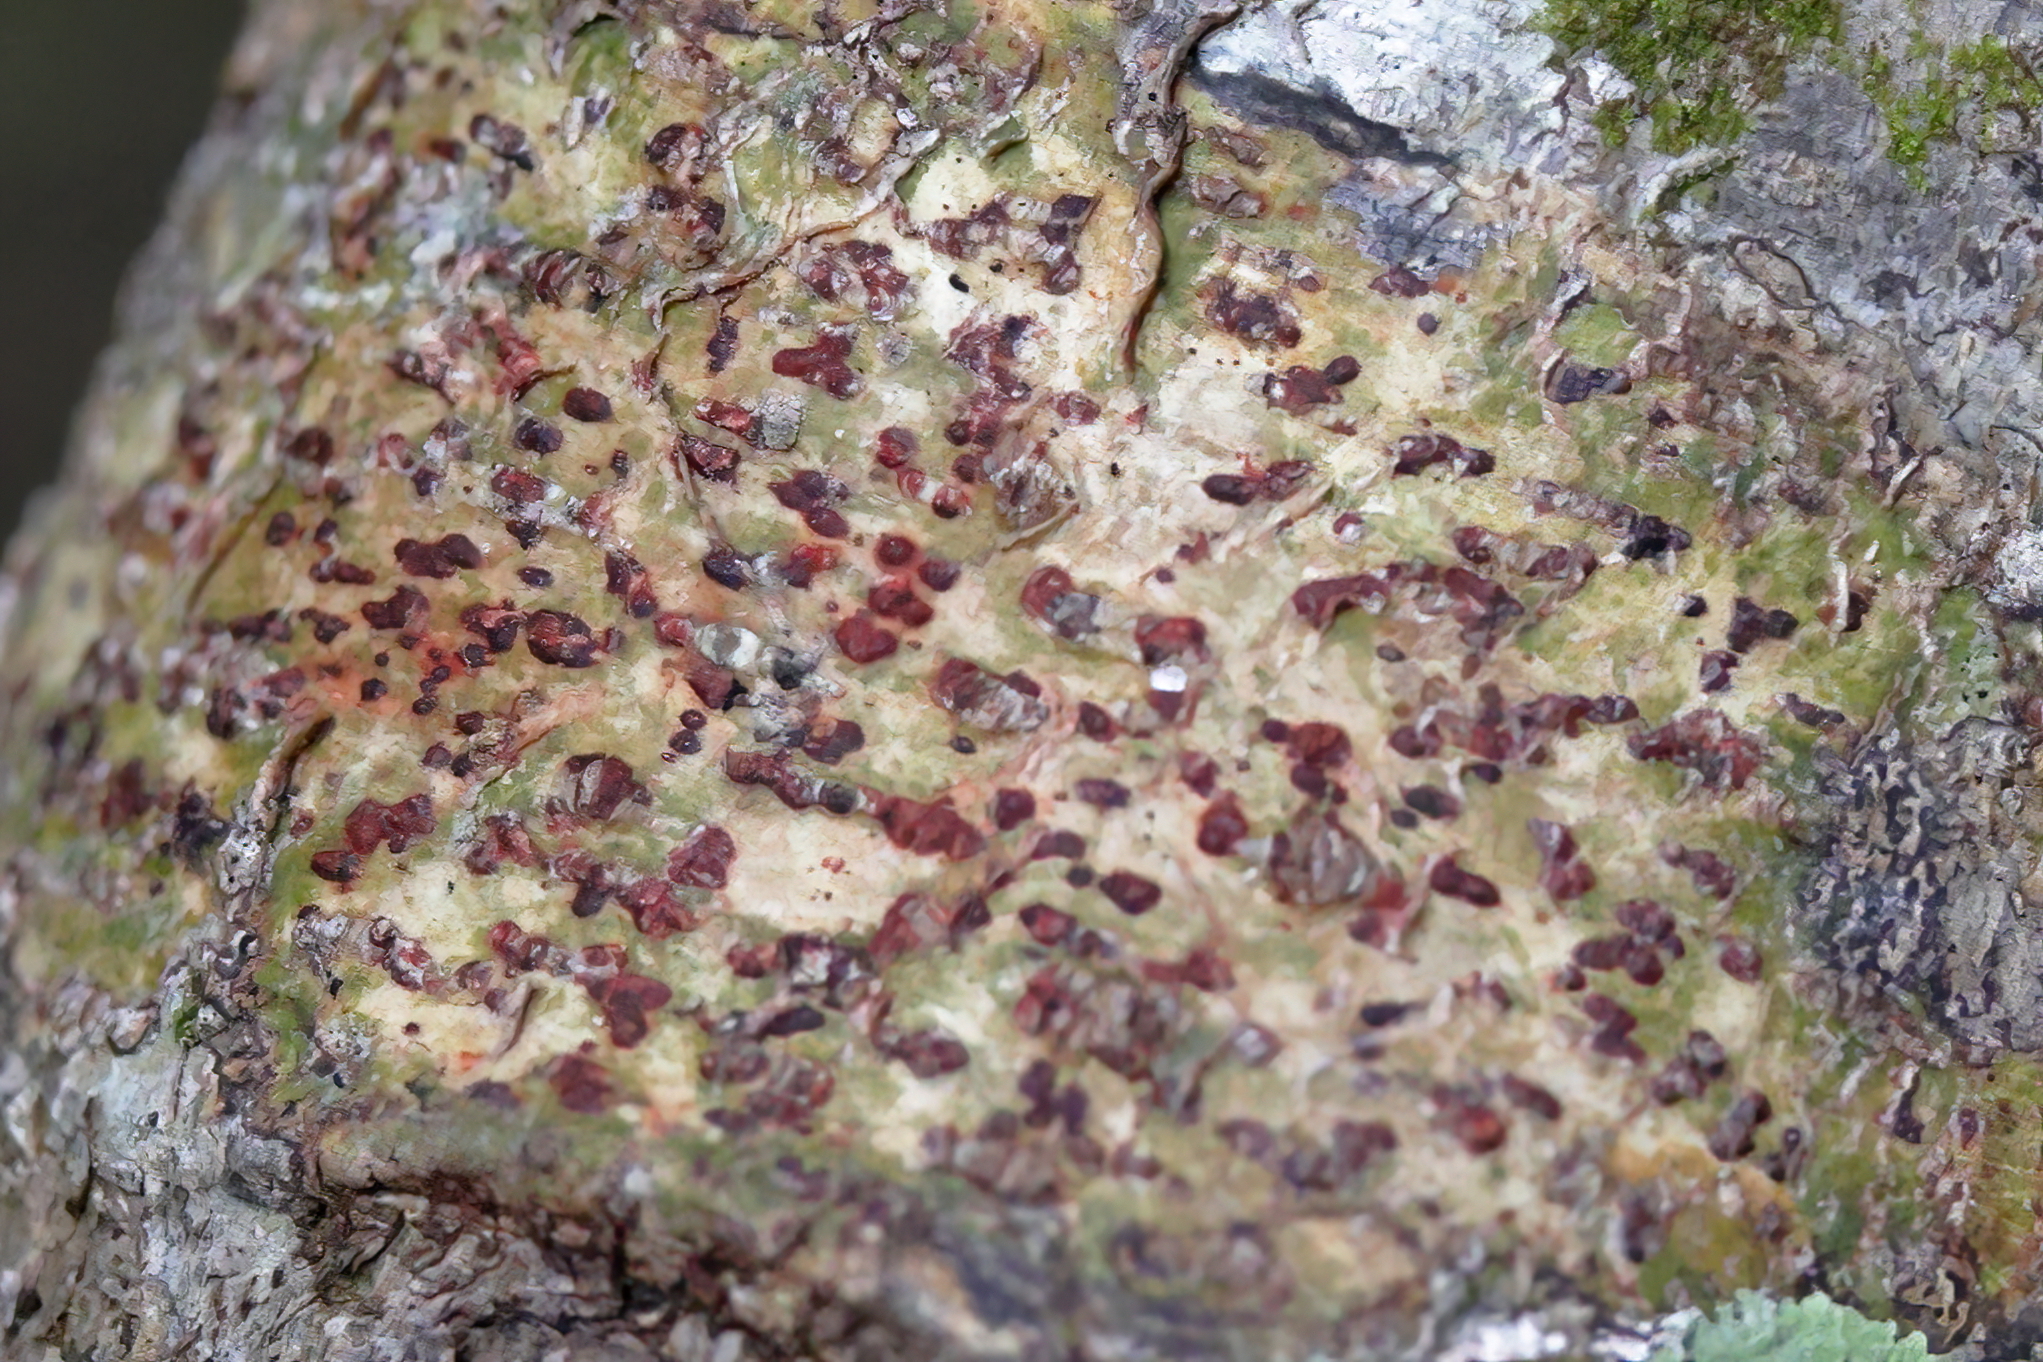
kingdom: Fungi
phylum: Ascomycota
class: Eurotiomycetes
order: Pyrenulales
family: Pyrenulaceae
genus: Pyrenula
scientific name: Pyrenula cruenta
